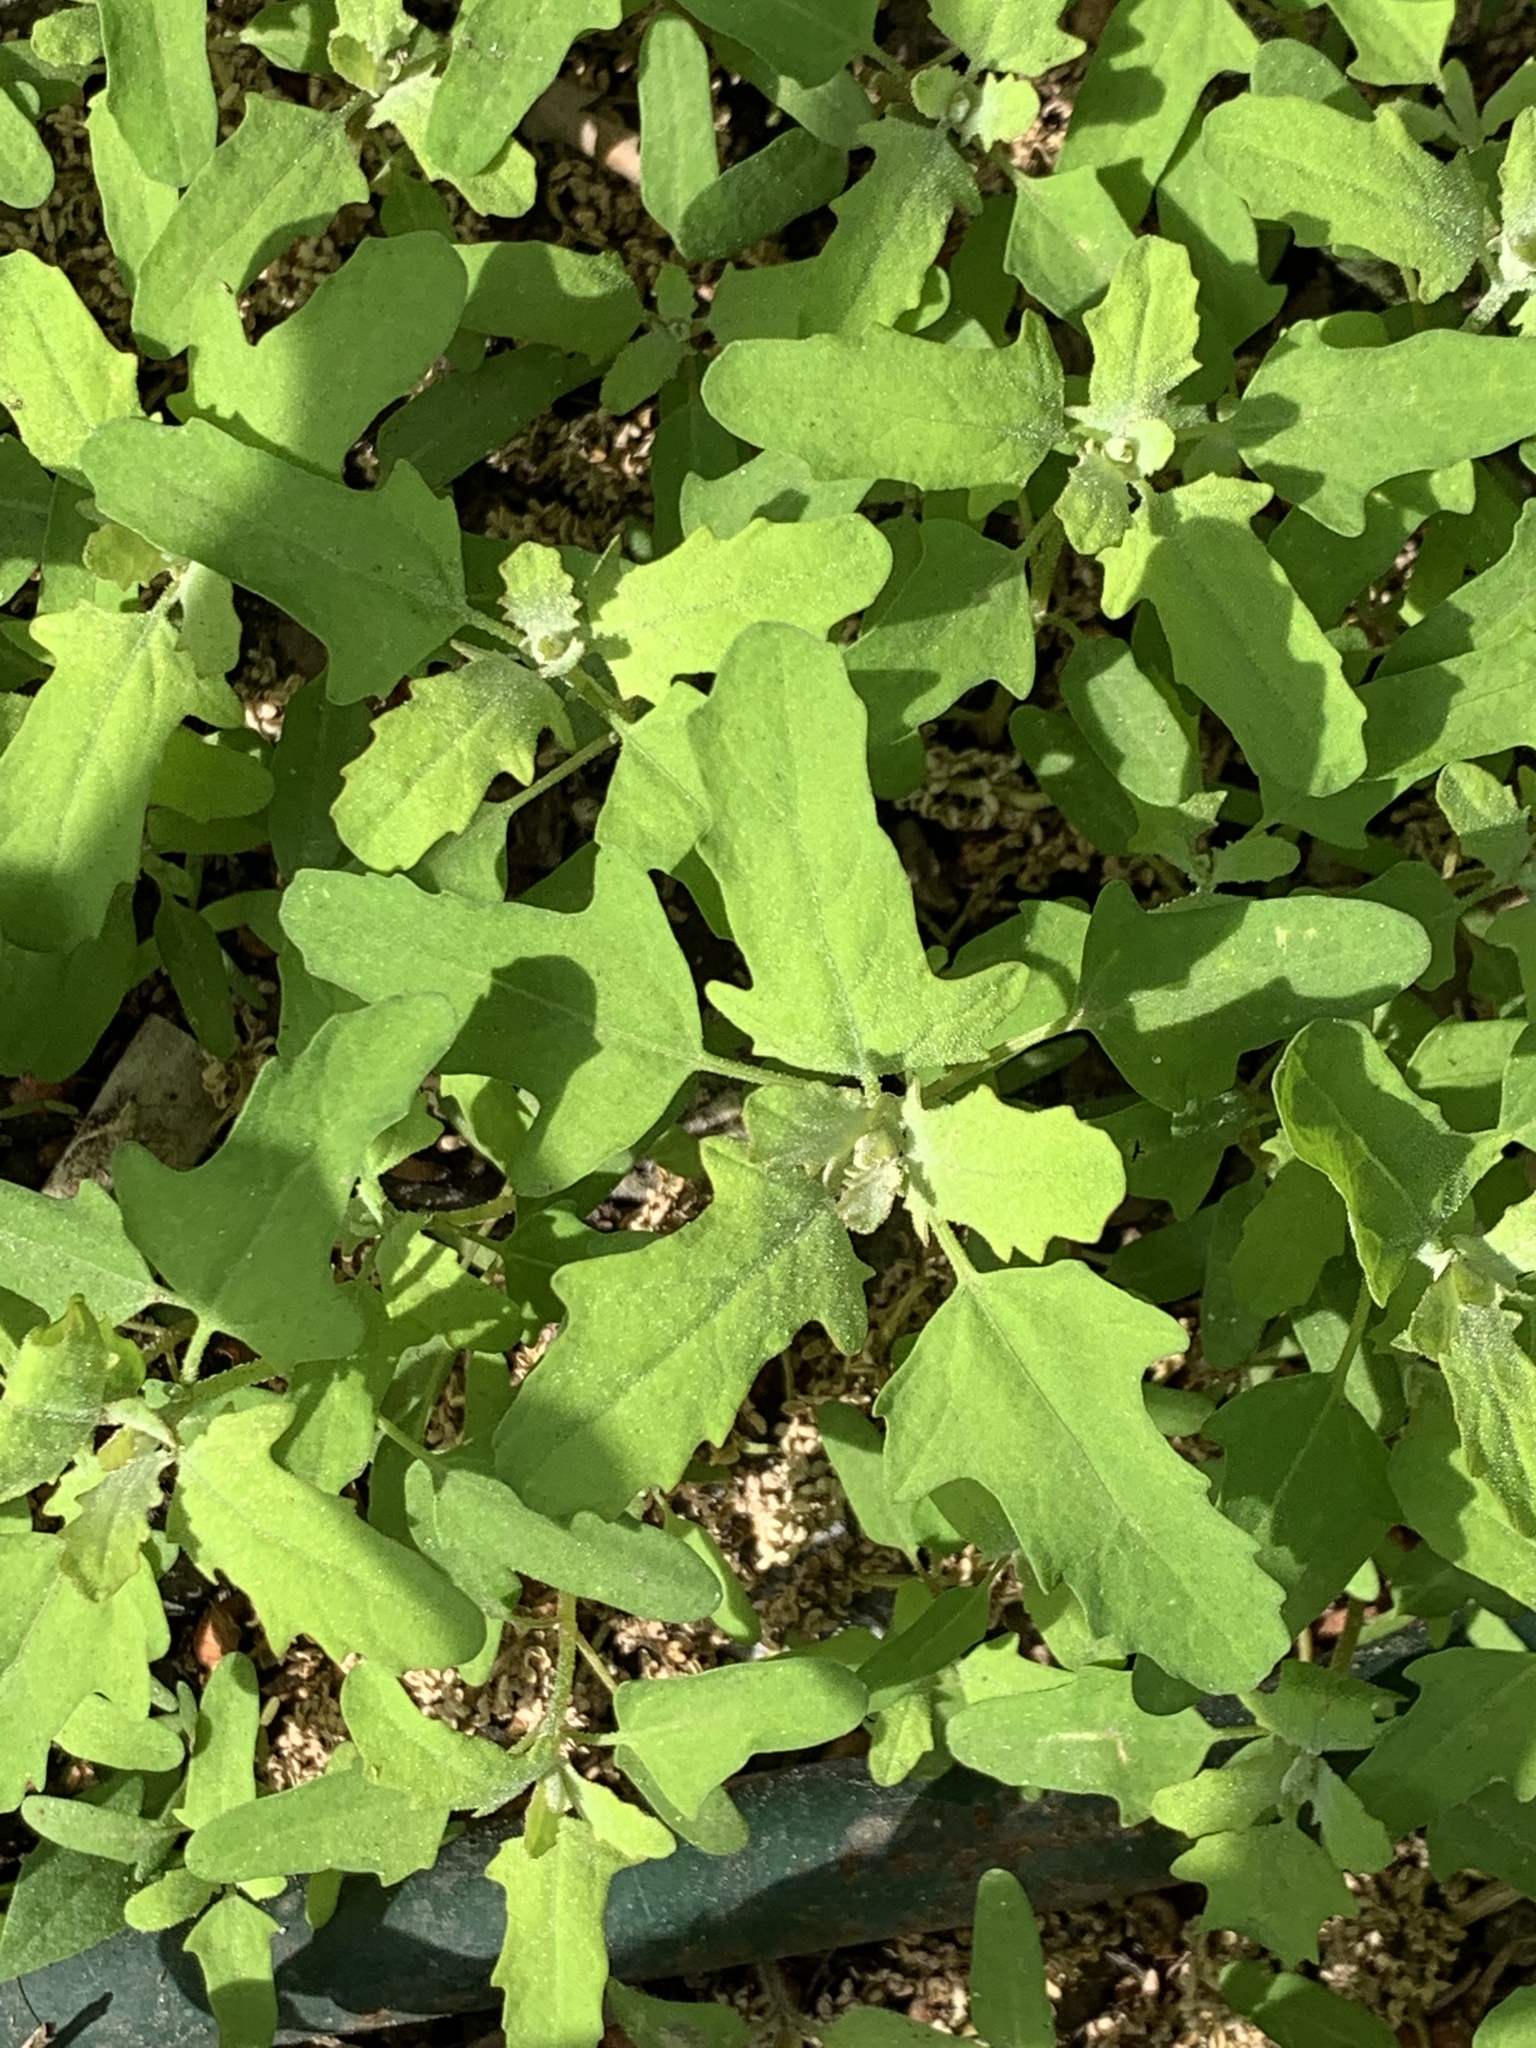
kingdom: Plantae
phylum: Tracheophyta
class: Magnoliopsida
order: Caryophyllales
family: Amaranthaceae
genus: Chenopodium
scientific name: Chenopodium album
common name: Fat-hen
